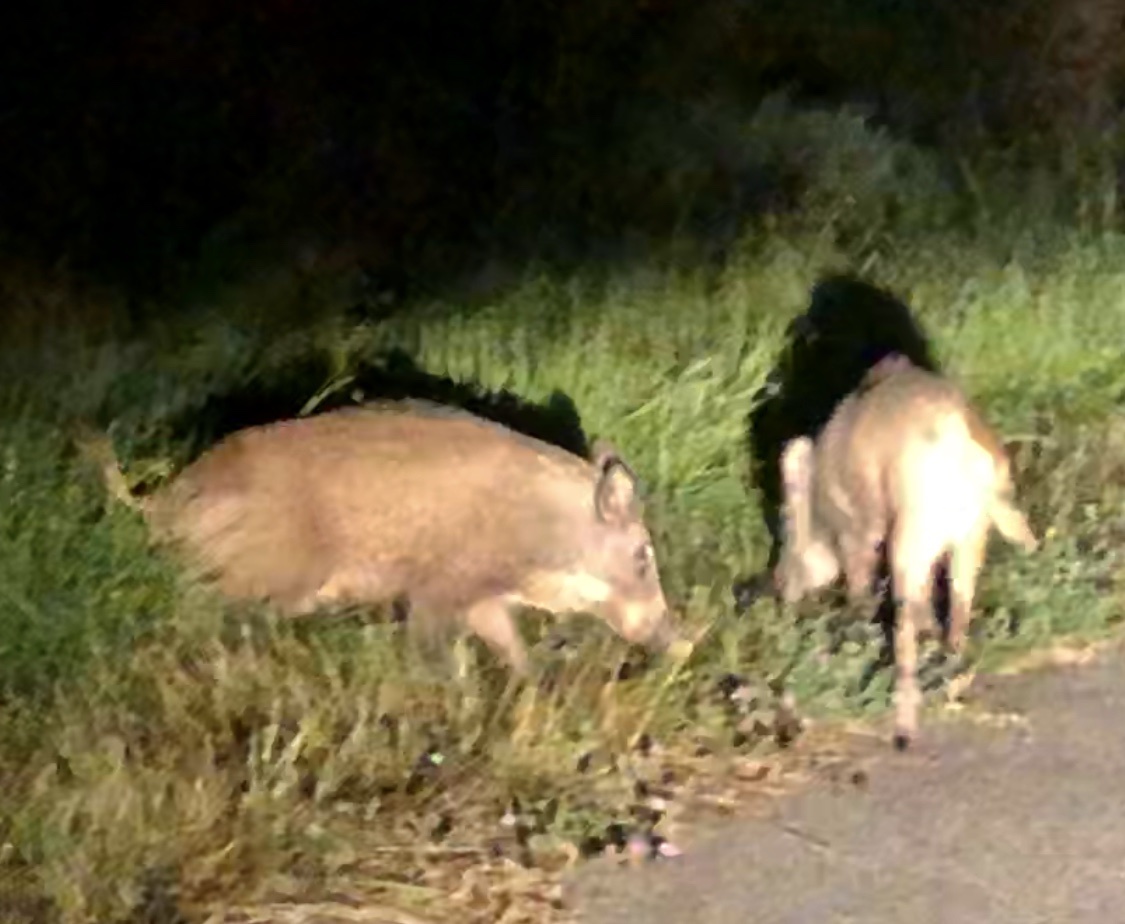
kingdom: Animalia
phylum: Chordata
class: Mammalia
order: Artiodactyla
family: Suidae
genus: Sus
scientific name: Sus scrofa
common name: Wild boar
